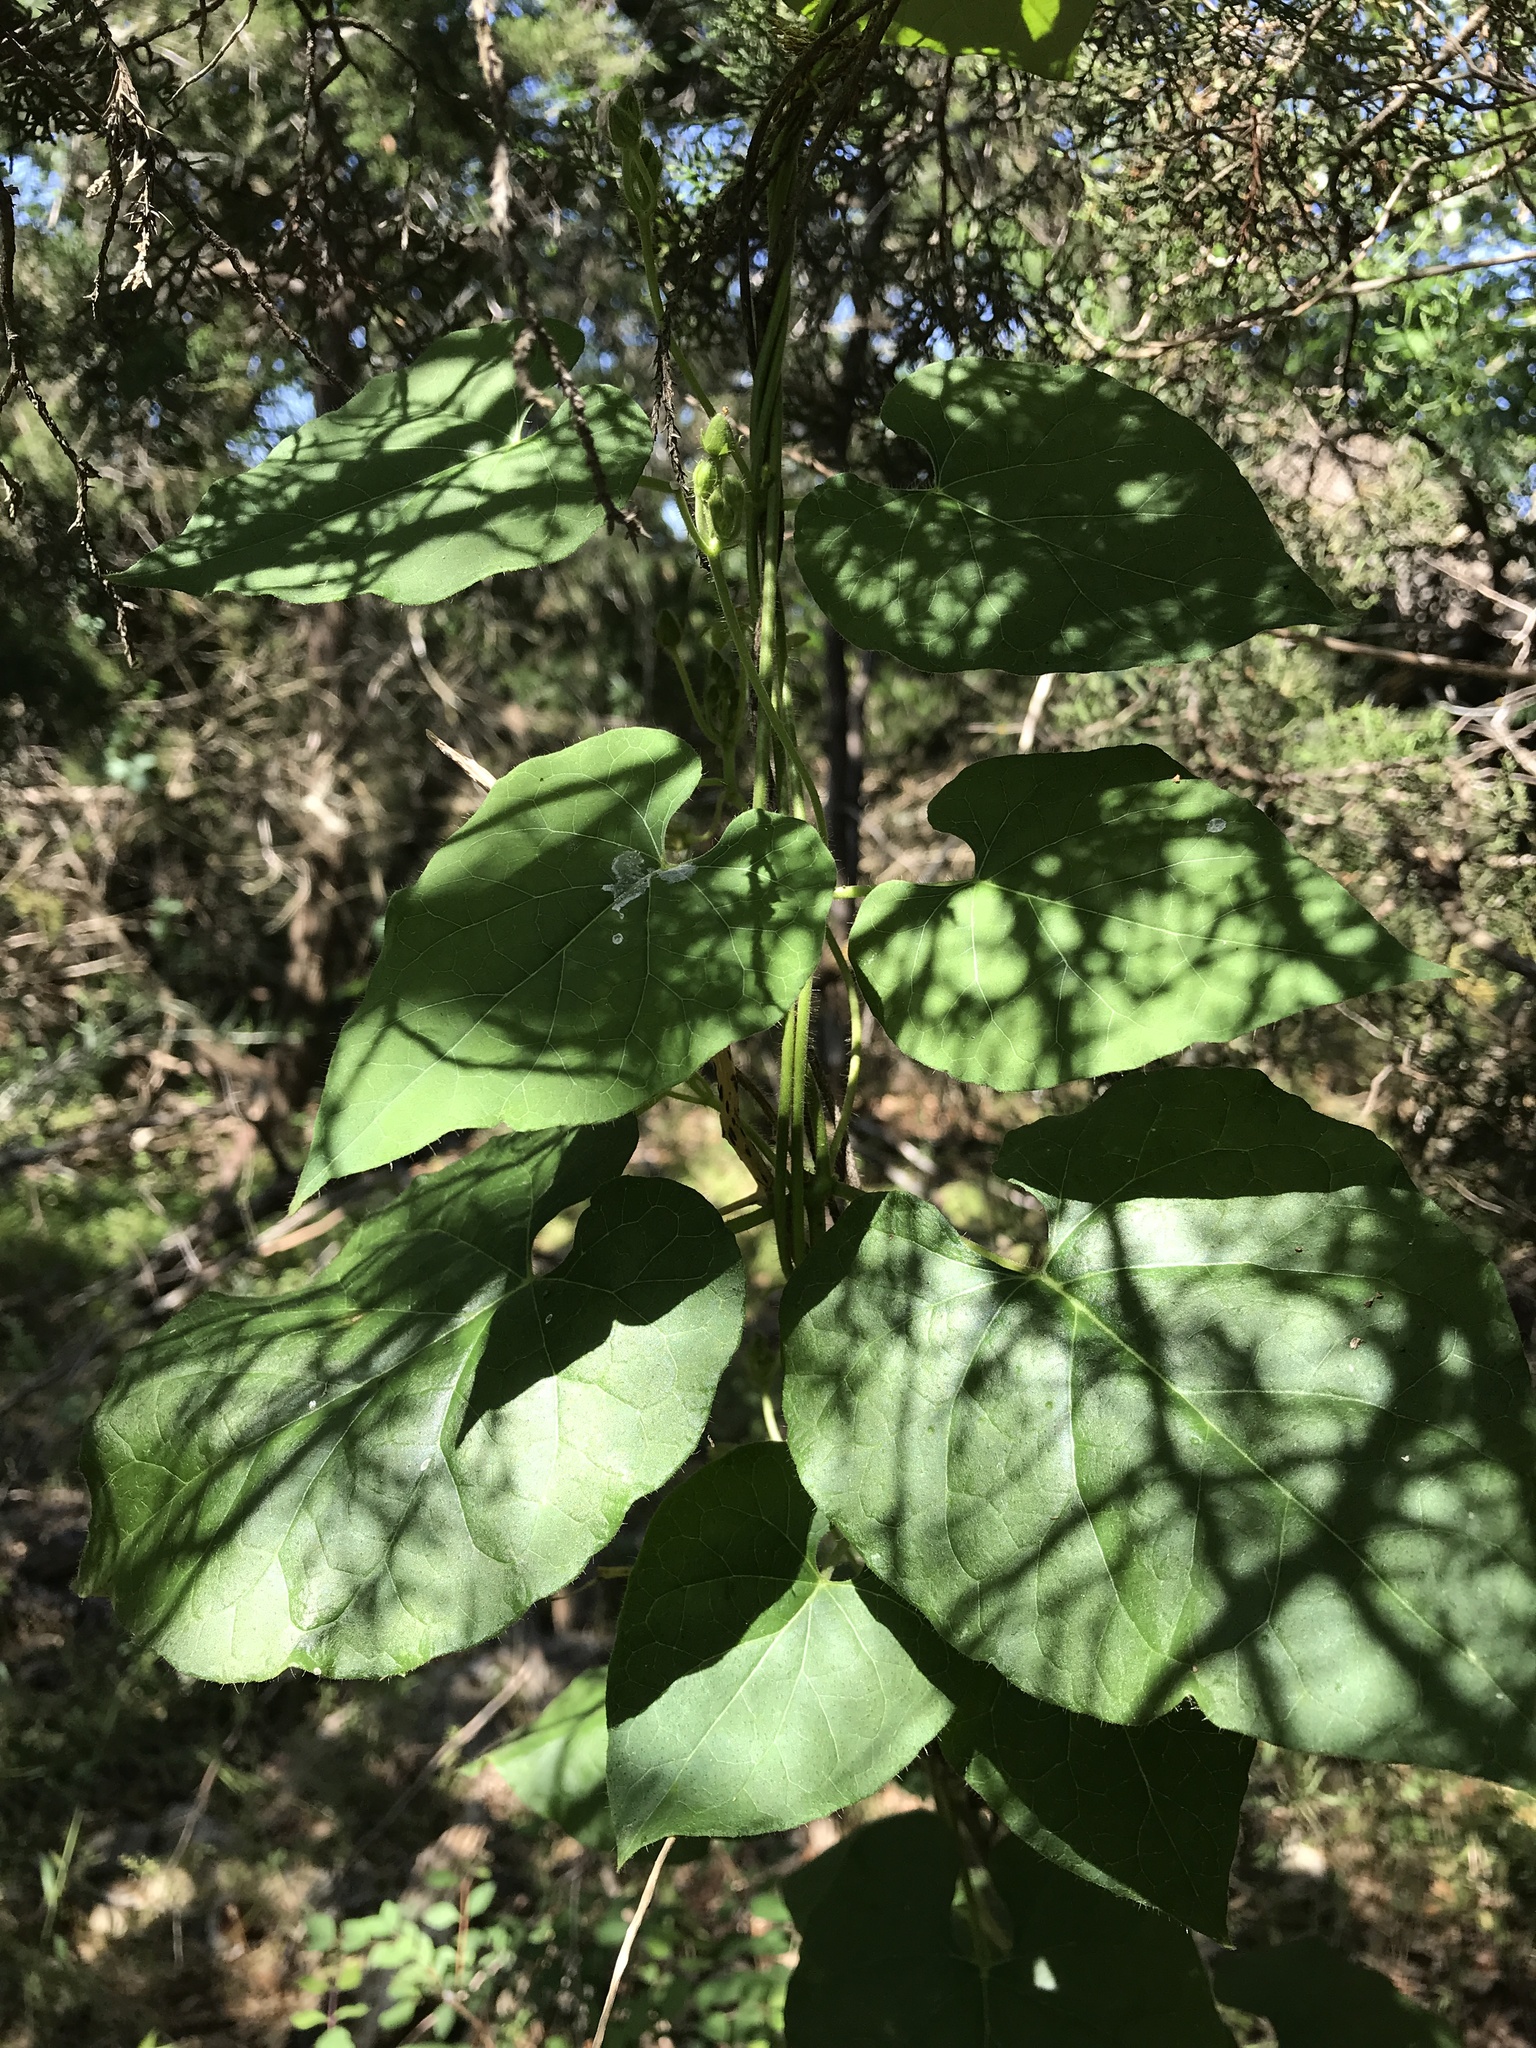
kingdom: Plantae
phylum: Tracheophyta
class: Magnoliopsida
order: Gentianales
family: Apocynaceae
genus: Dictyanthus
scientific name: Dictyanthus reticulatus
